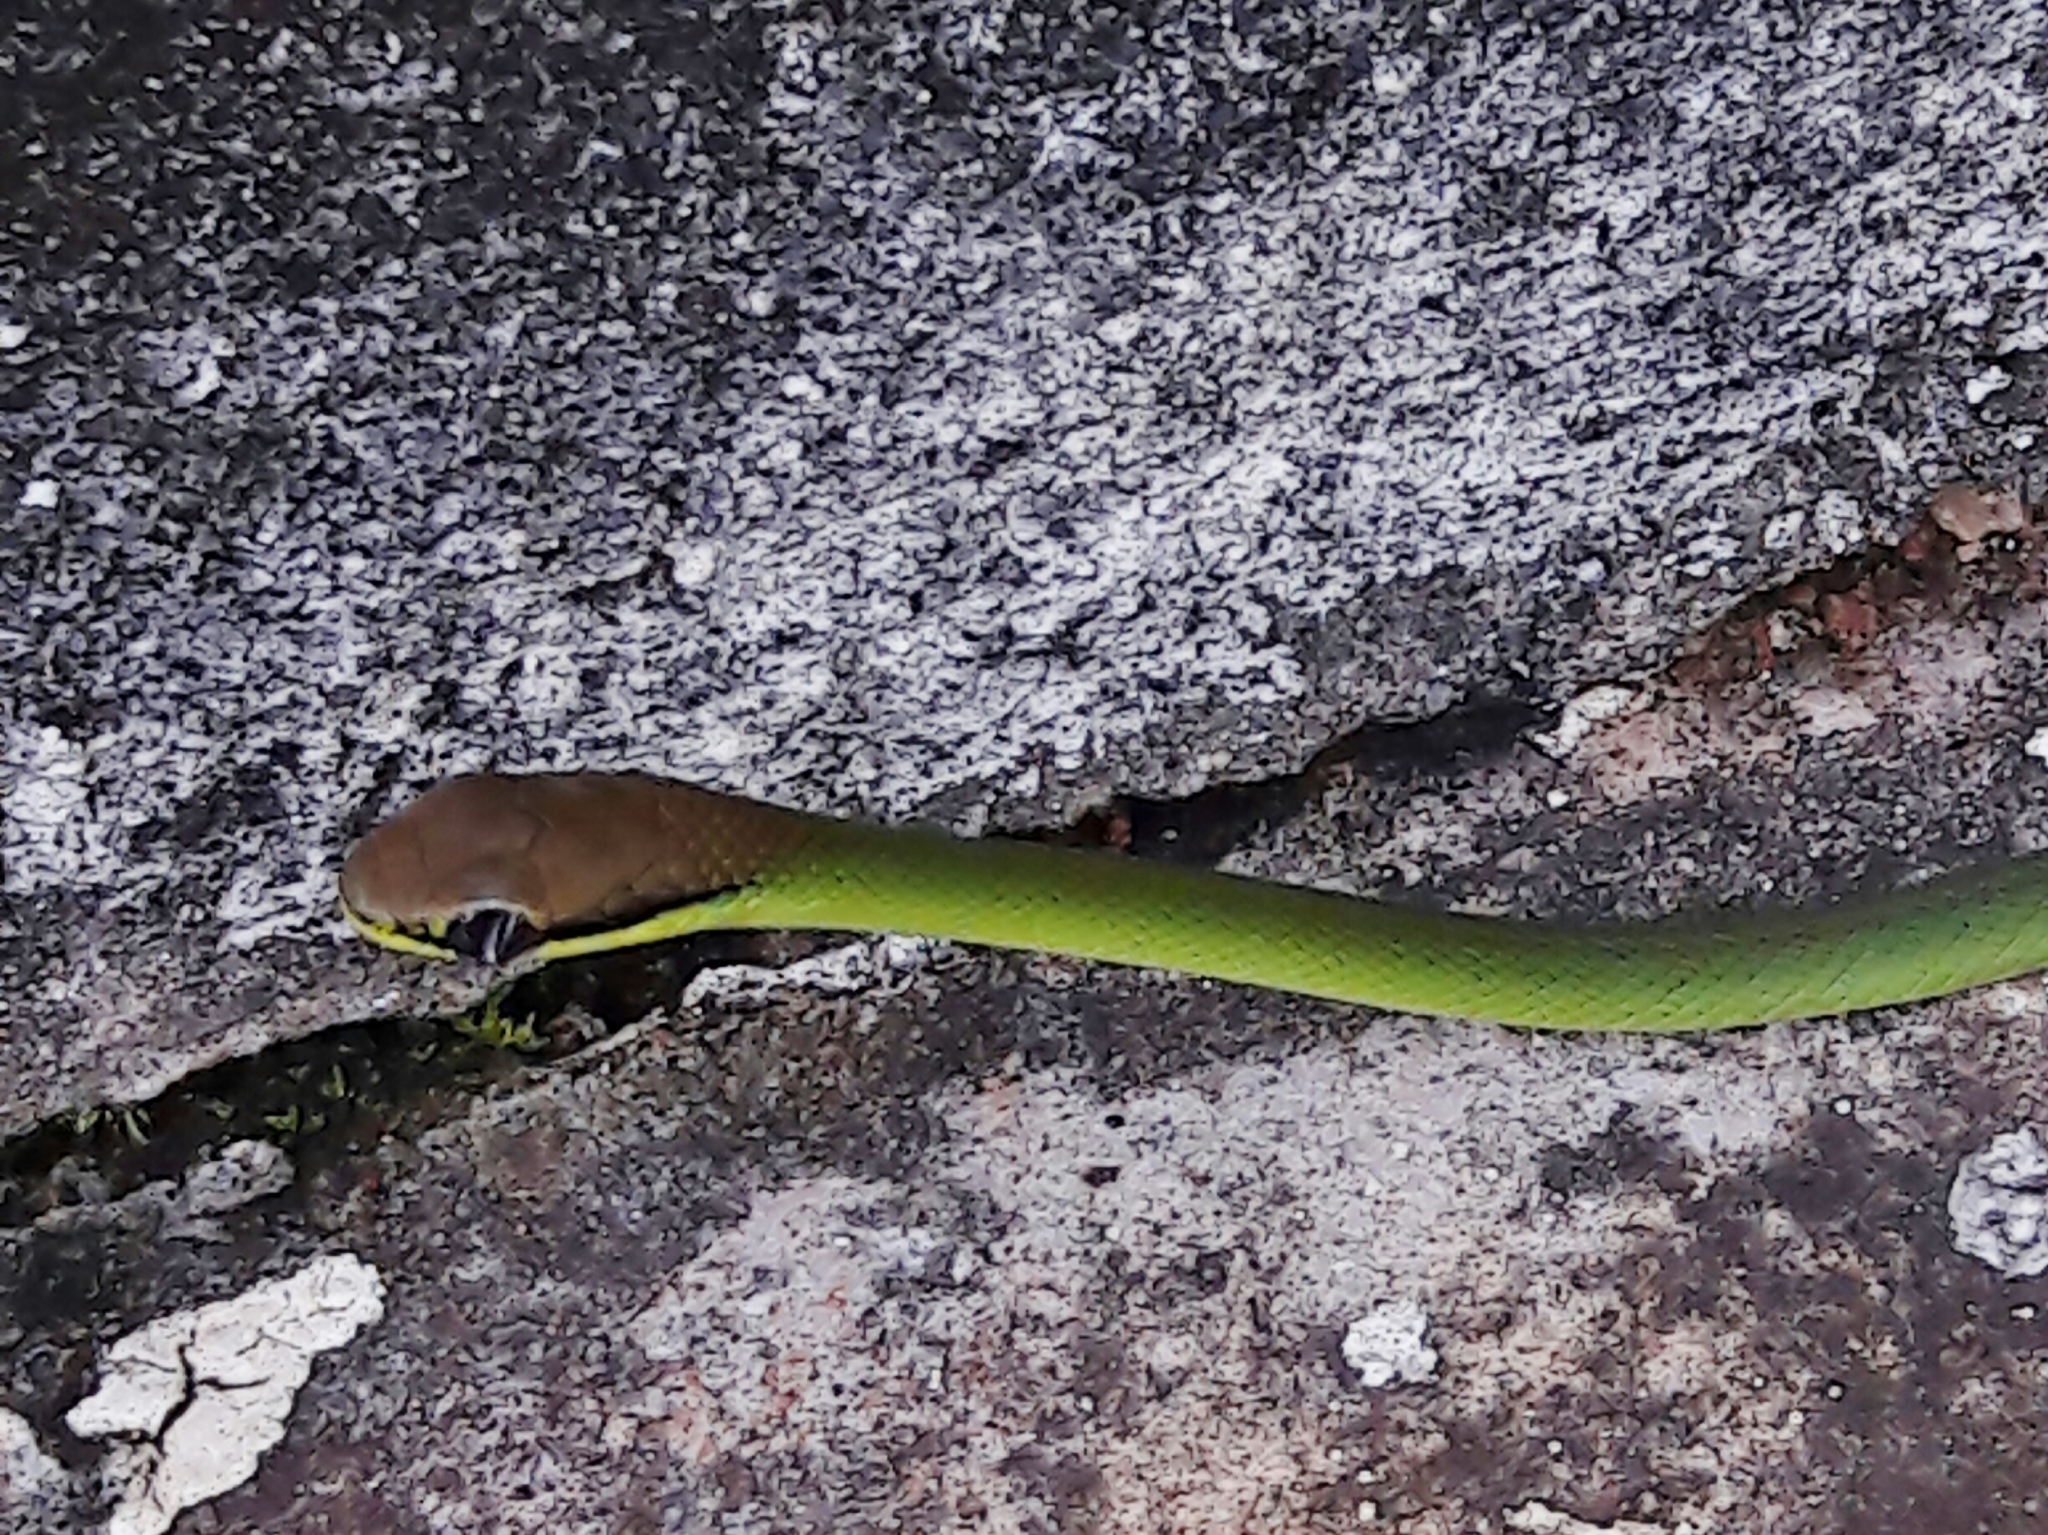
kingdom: Animalia
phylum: Chordata
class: Squamata
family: Colubridae
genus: Philodryas
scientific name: Philodryas olfersii
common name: Lichtenstein's green racer
